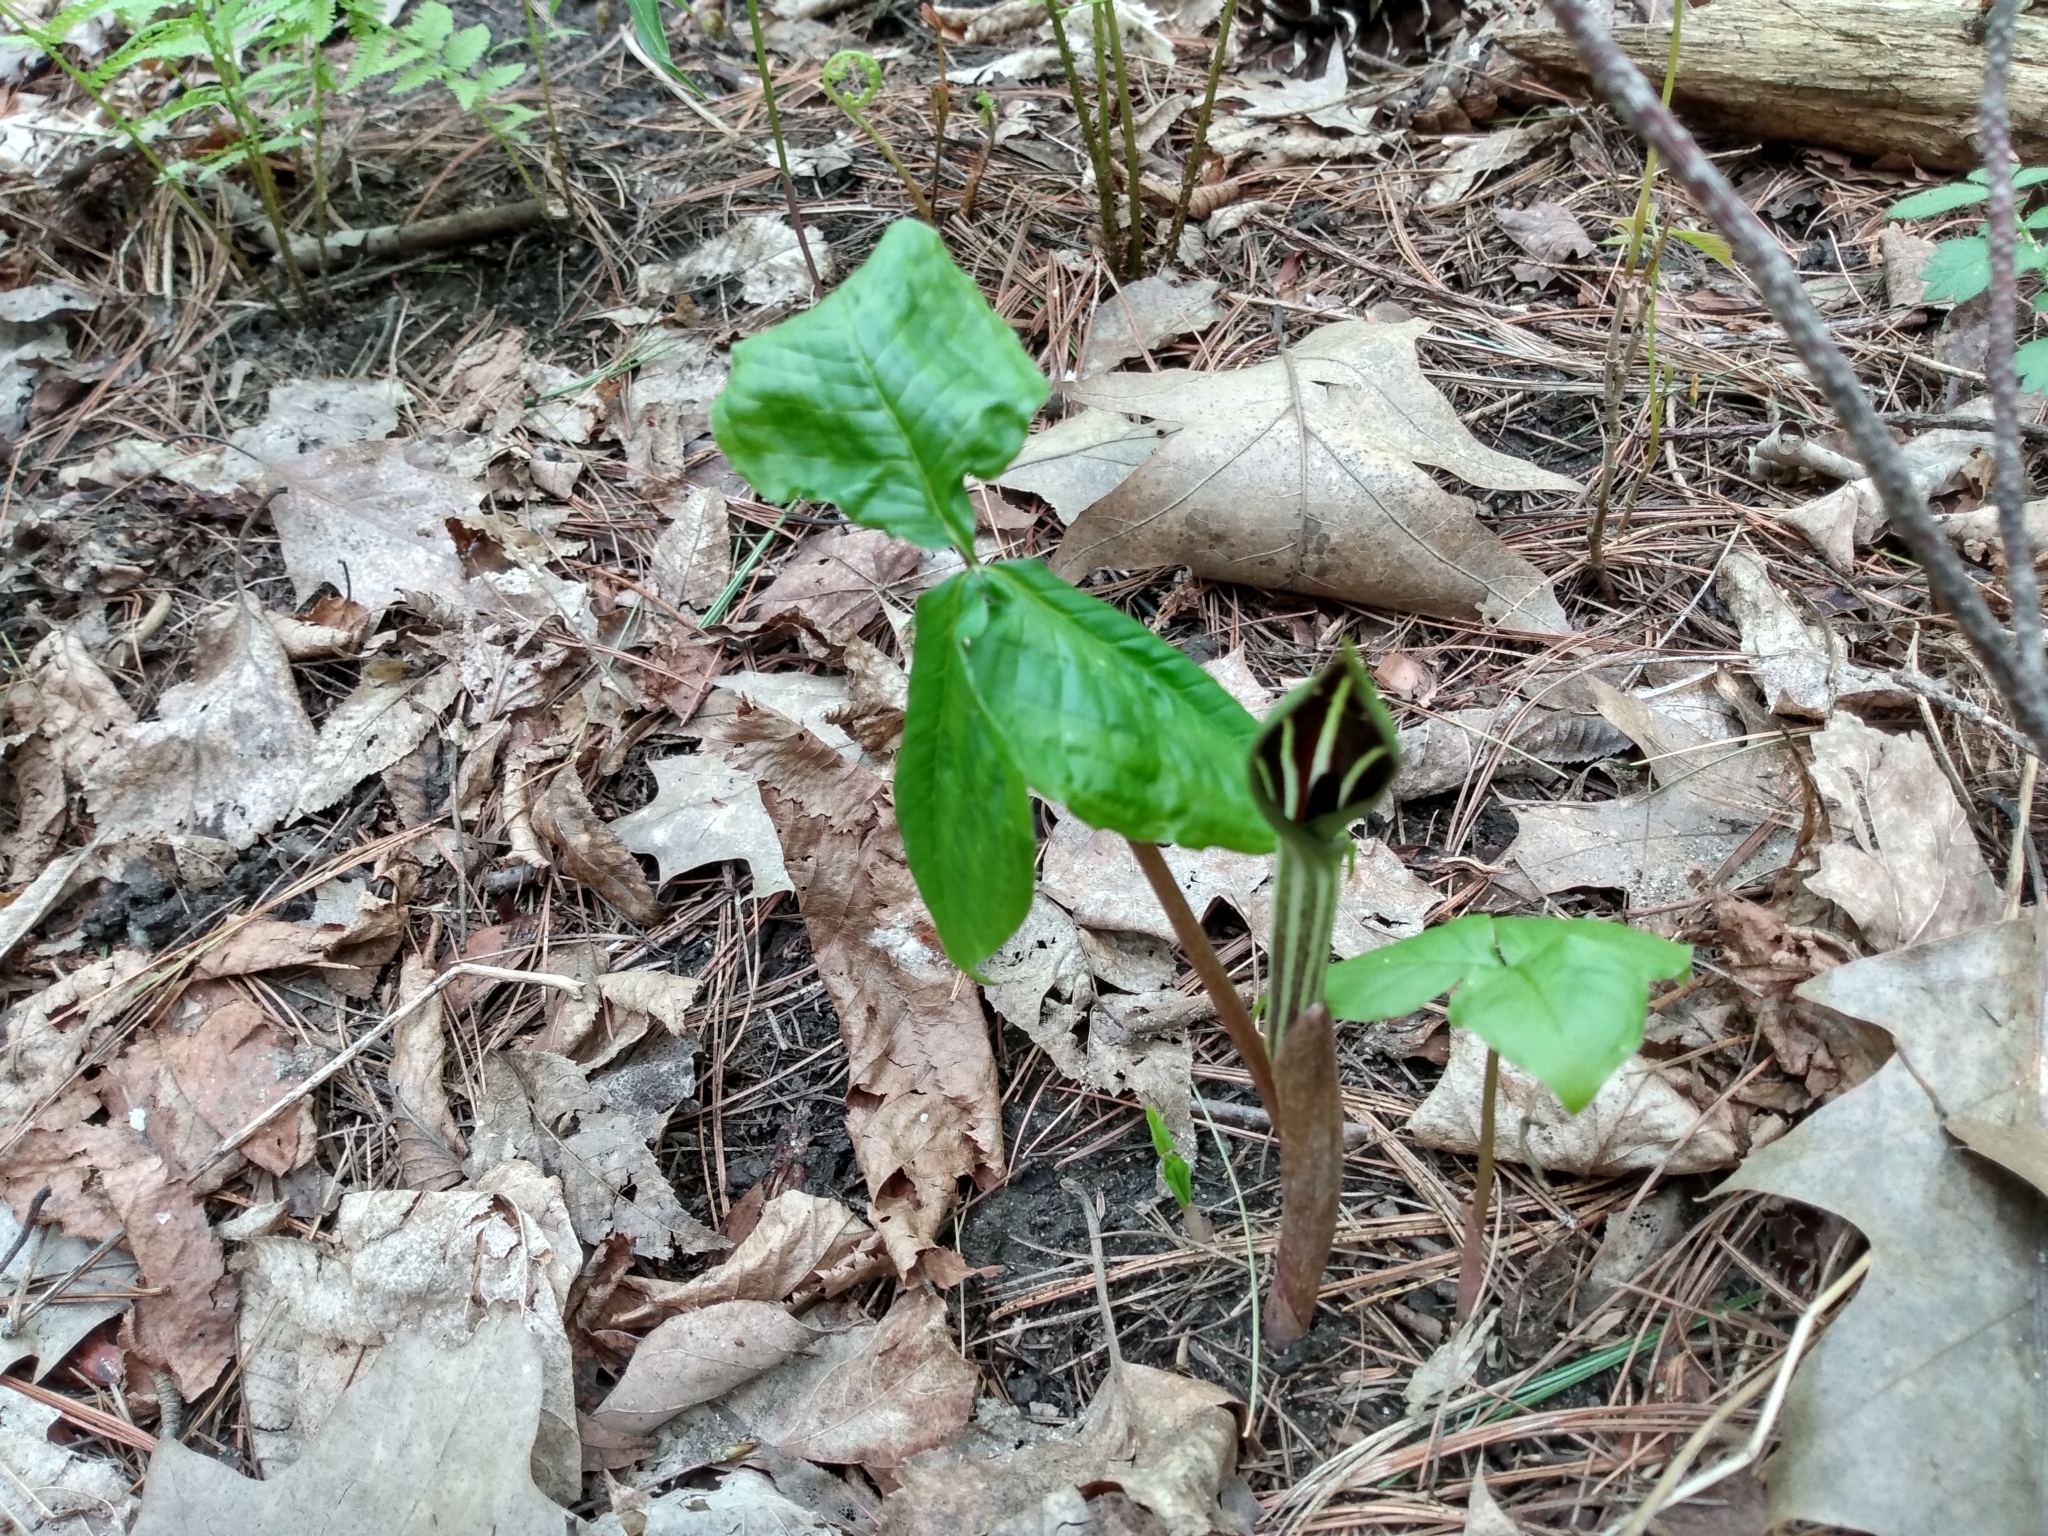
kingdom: Plantae
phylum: Tracheophyta
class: Liliopsida
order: Alismatales
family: Araceae
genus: Arisaema
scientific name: Arisaema triphyllum
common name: Jack-in-the-pulpit
